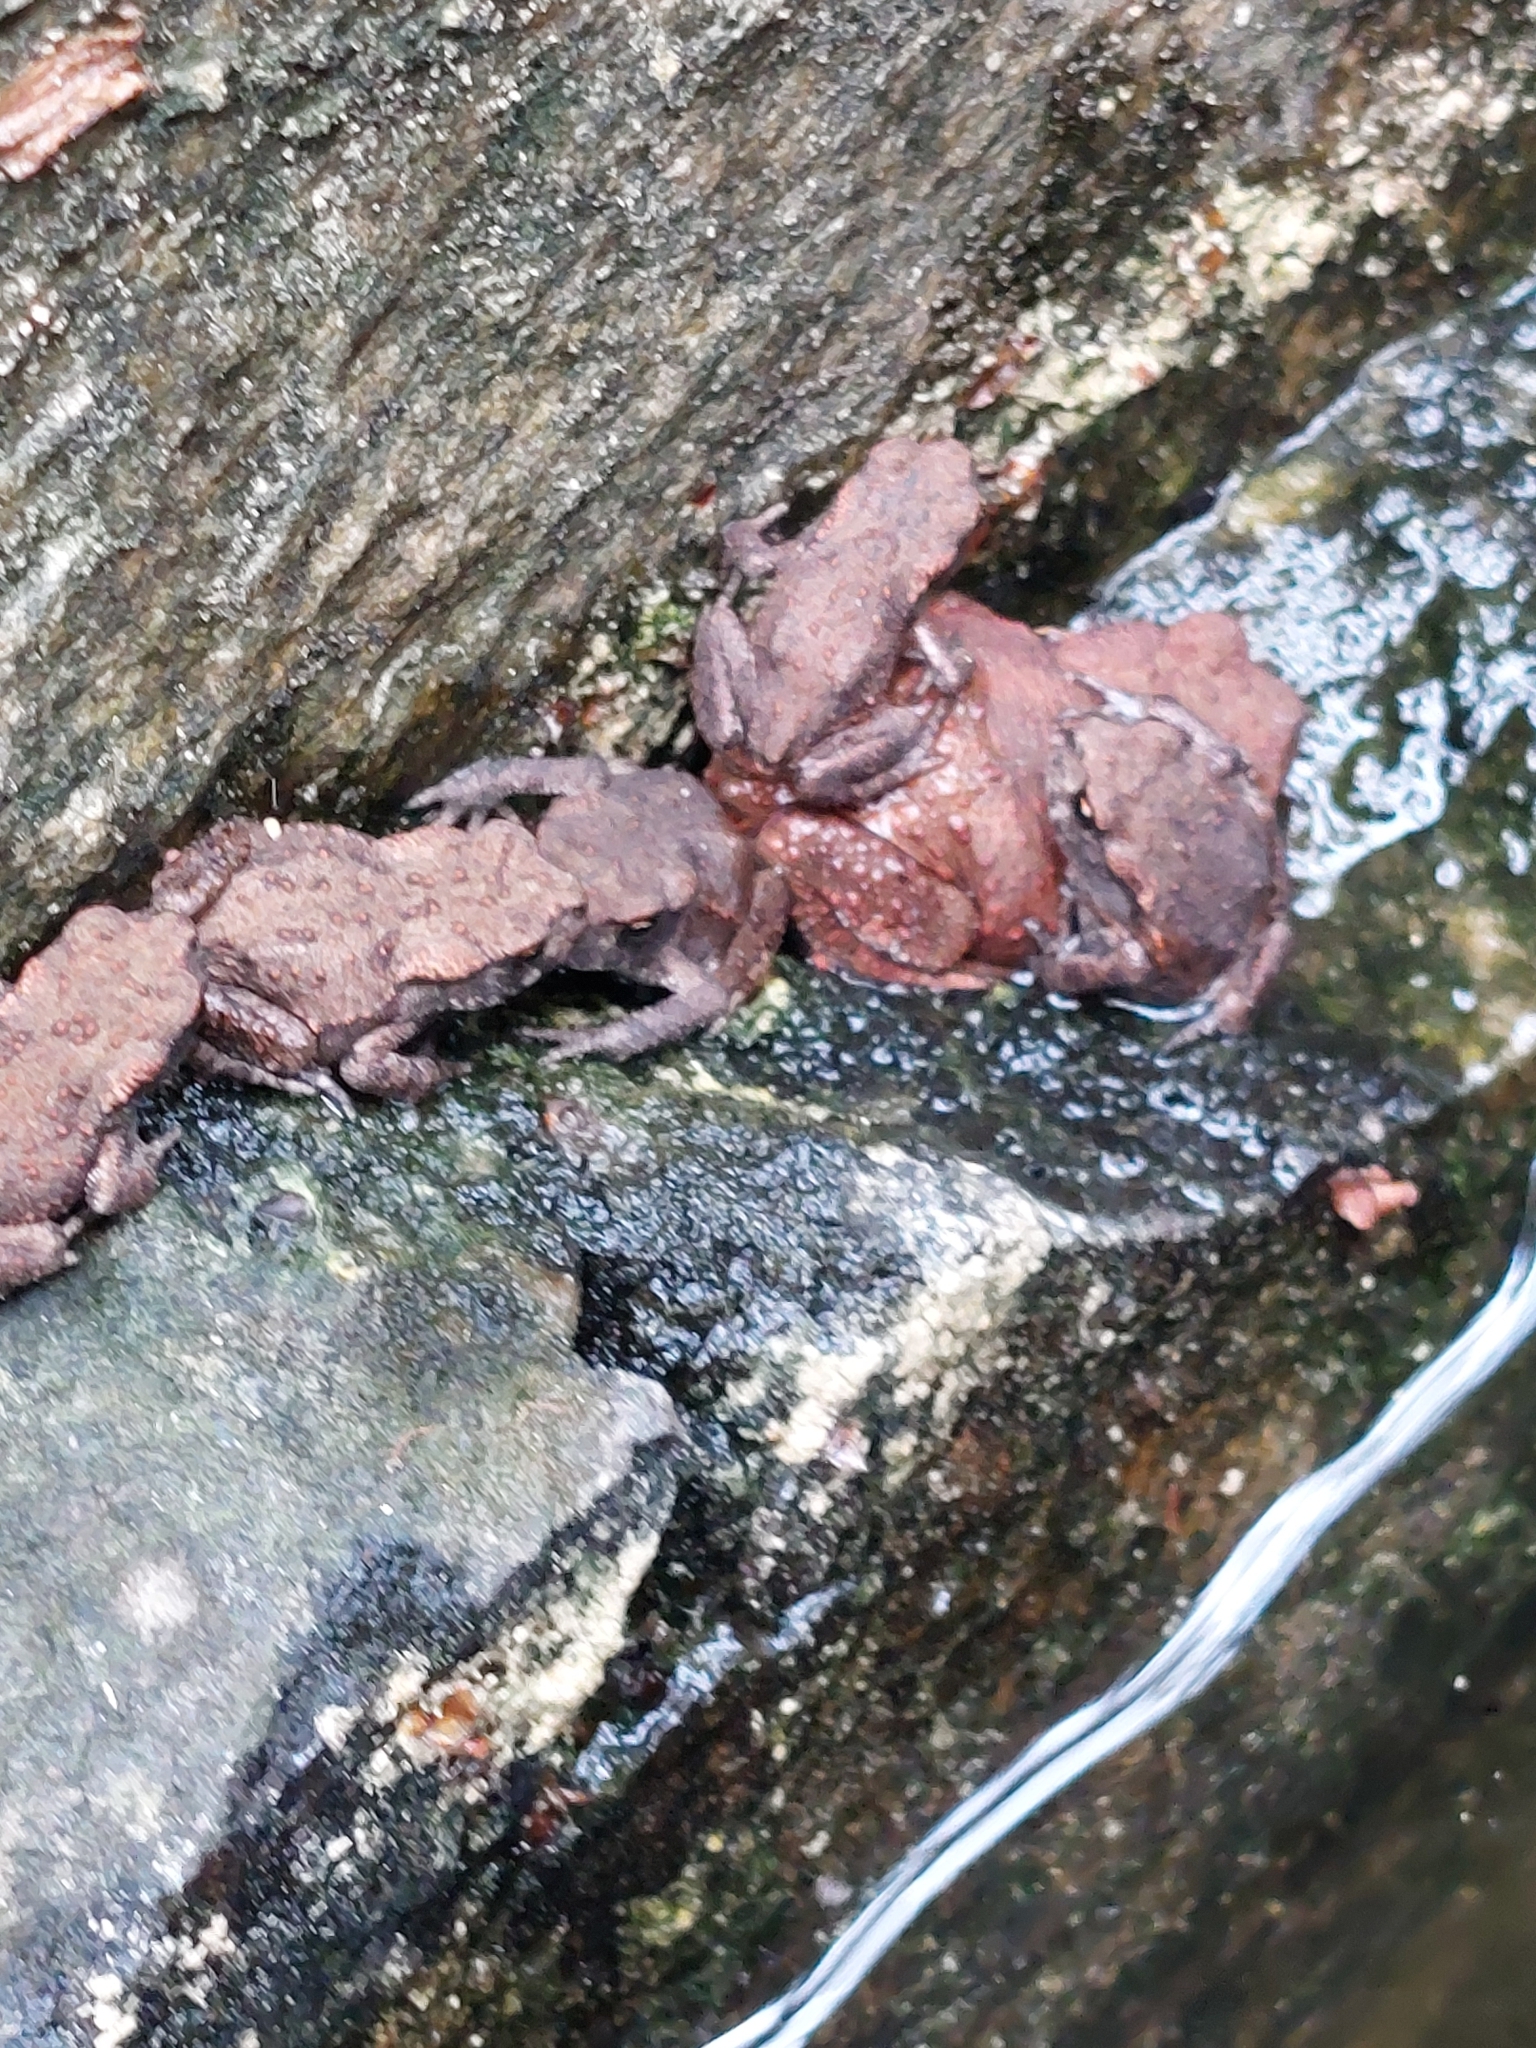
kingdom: Animalia
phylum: Chordata
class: Amphibia
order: Anura
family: Bufonidae
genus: Bufo
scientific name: Bufo bufo
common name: Common toad
